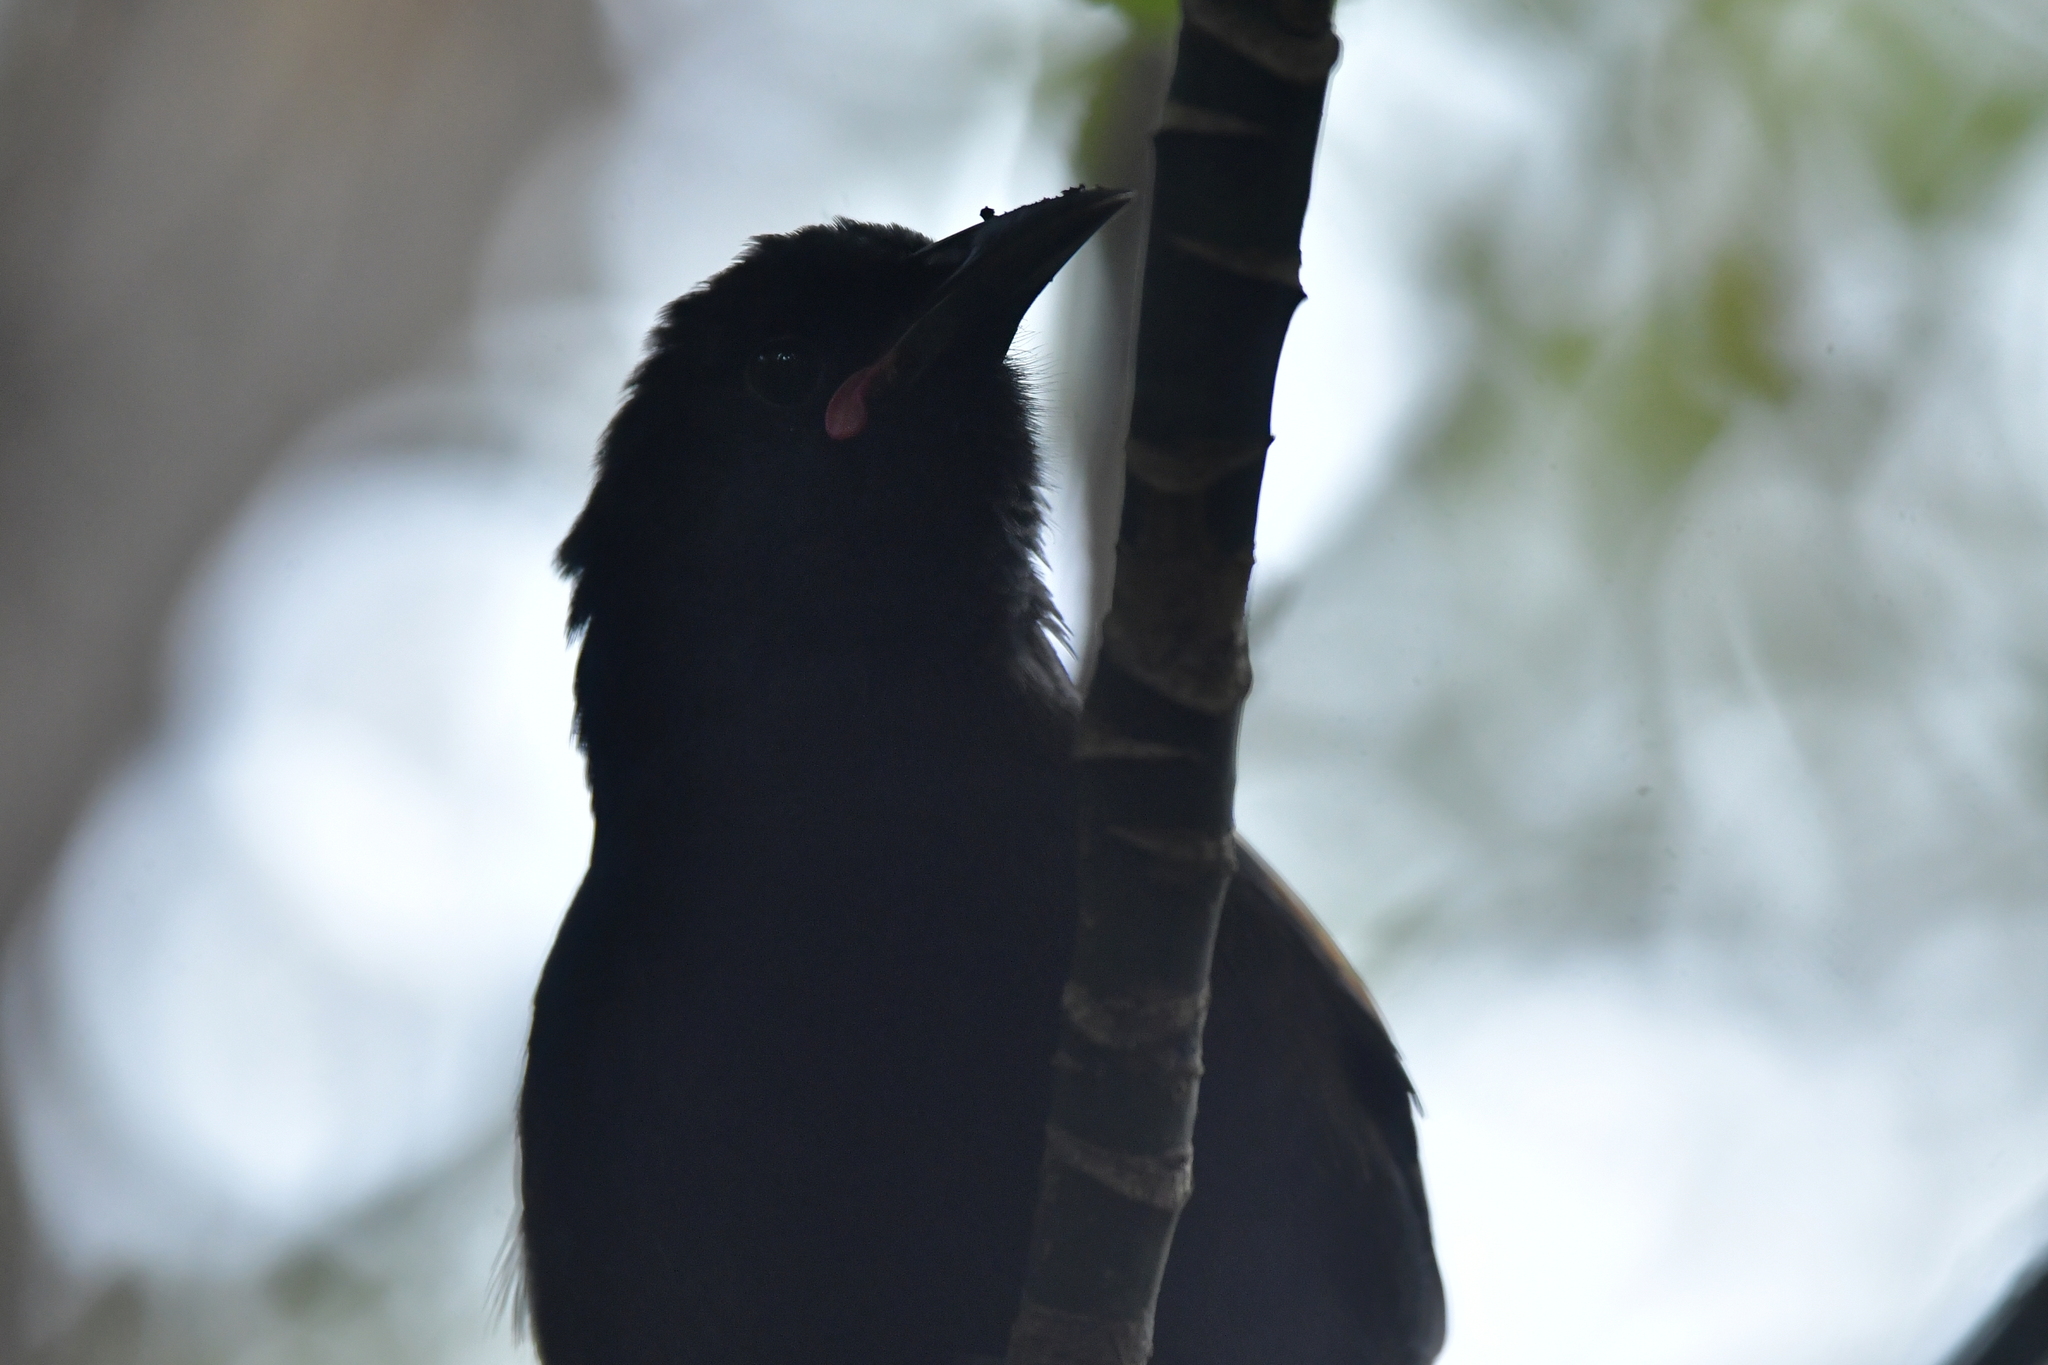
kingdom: Animalia
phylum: Chordata
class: Aves
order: Passeriformes
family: Callaeatidae
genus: Philesturnus
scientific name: Philesturnus carunculatus
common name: South island saddleback
